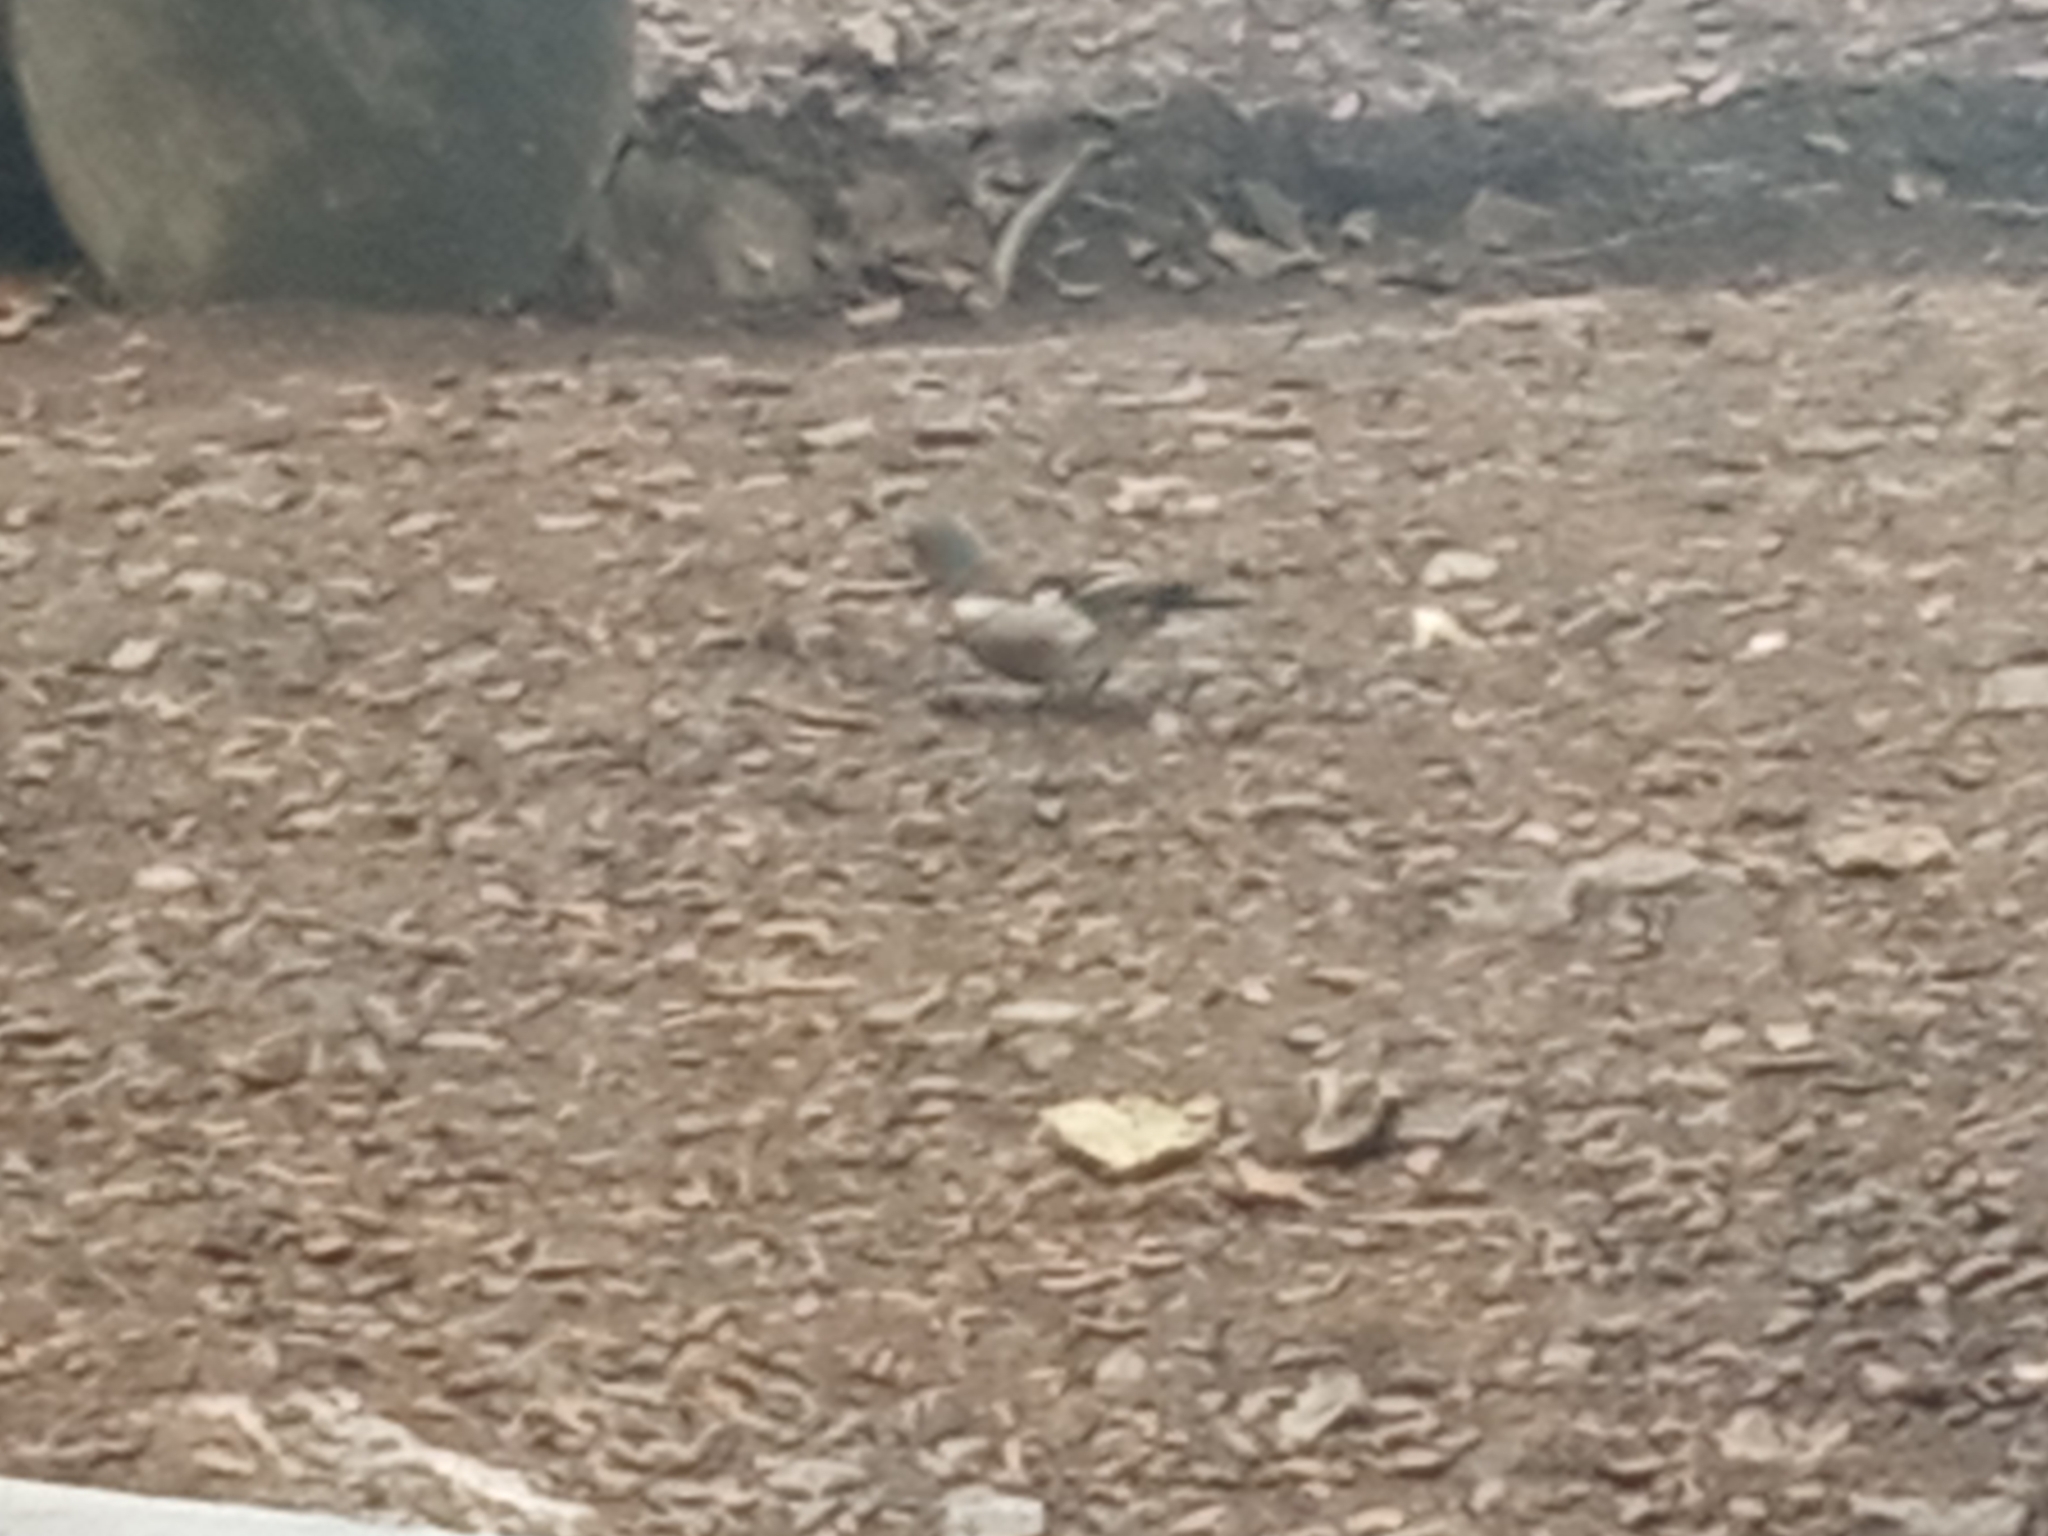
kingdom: Animalia
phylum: Chordata
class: Aves
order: Passeriformes
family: Fringillidae
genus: Fringilla
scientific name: Fringilla coelebs
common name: Common chaffinch
